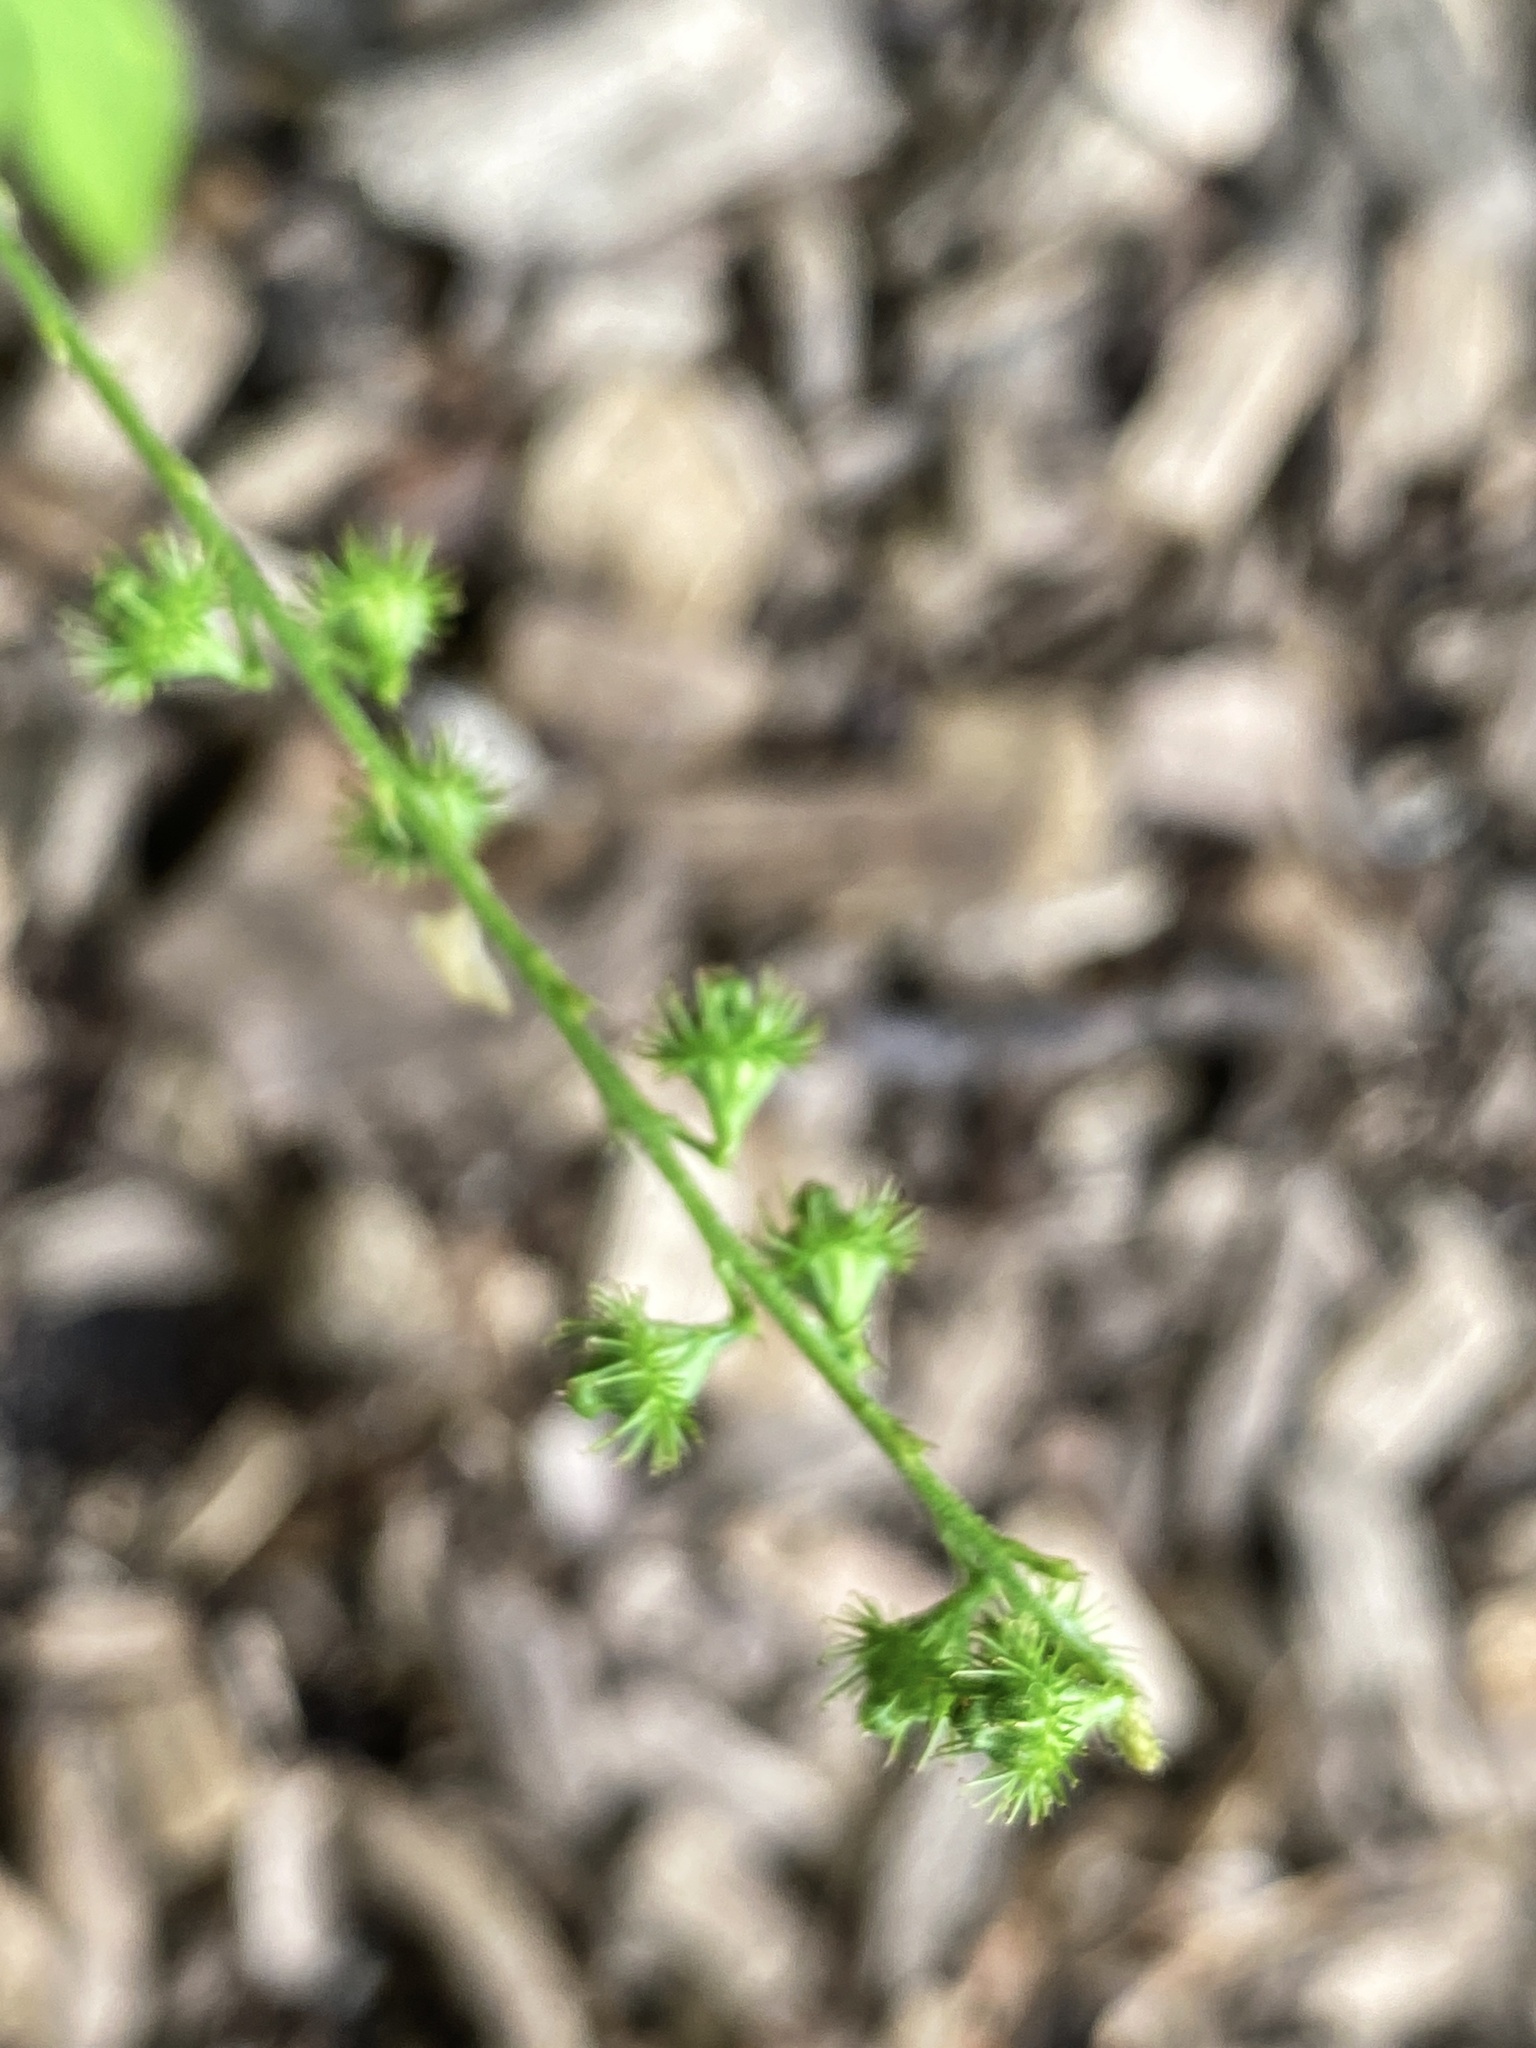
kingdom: Plantae
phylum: Tracheophyta
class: Magnoliopsida
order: Rosales
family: Rosaceae
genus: Agrimonia
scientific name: Agrimonia parviflora
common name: Harvest-lice
